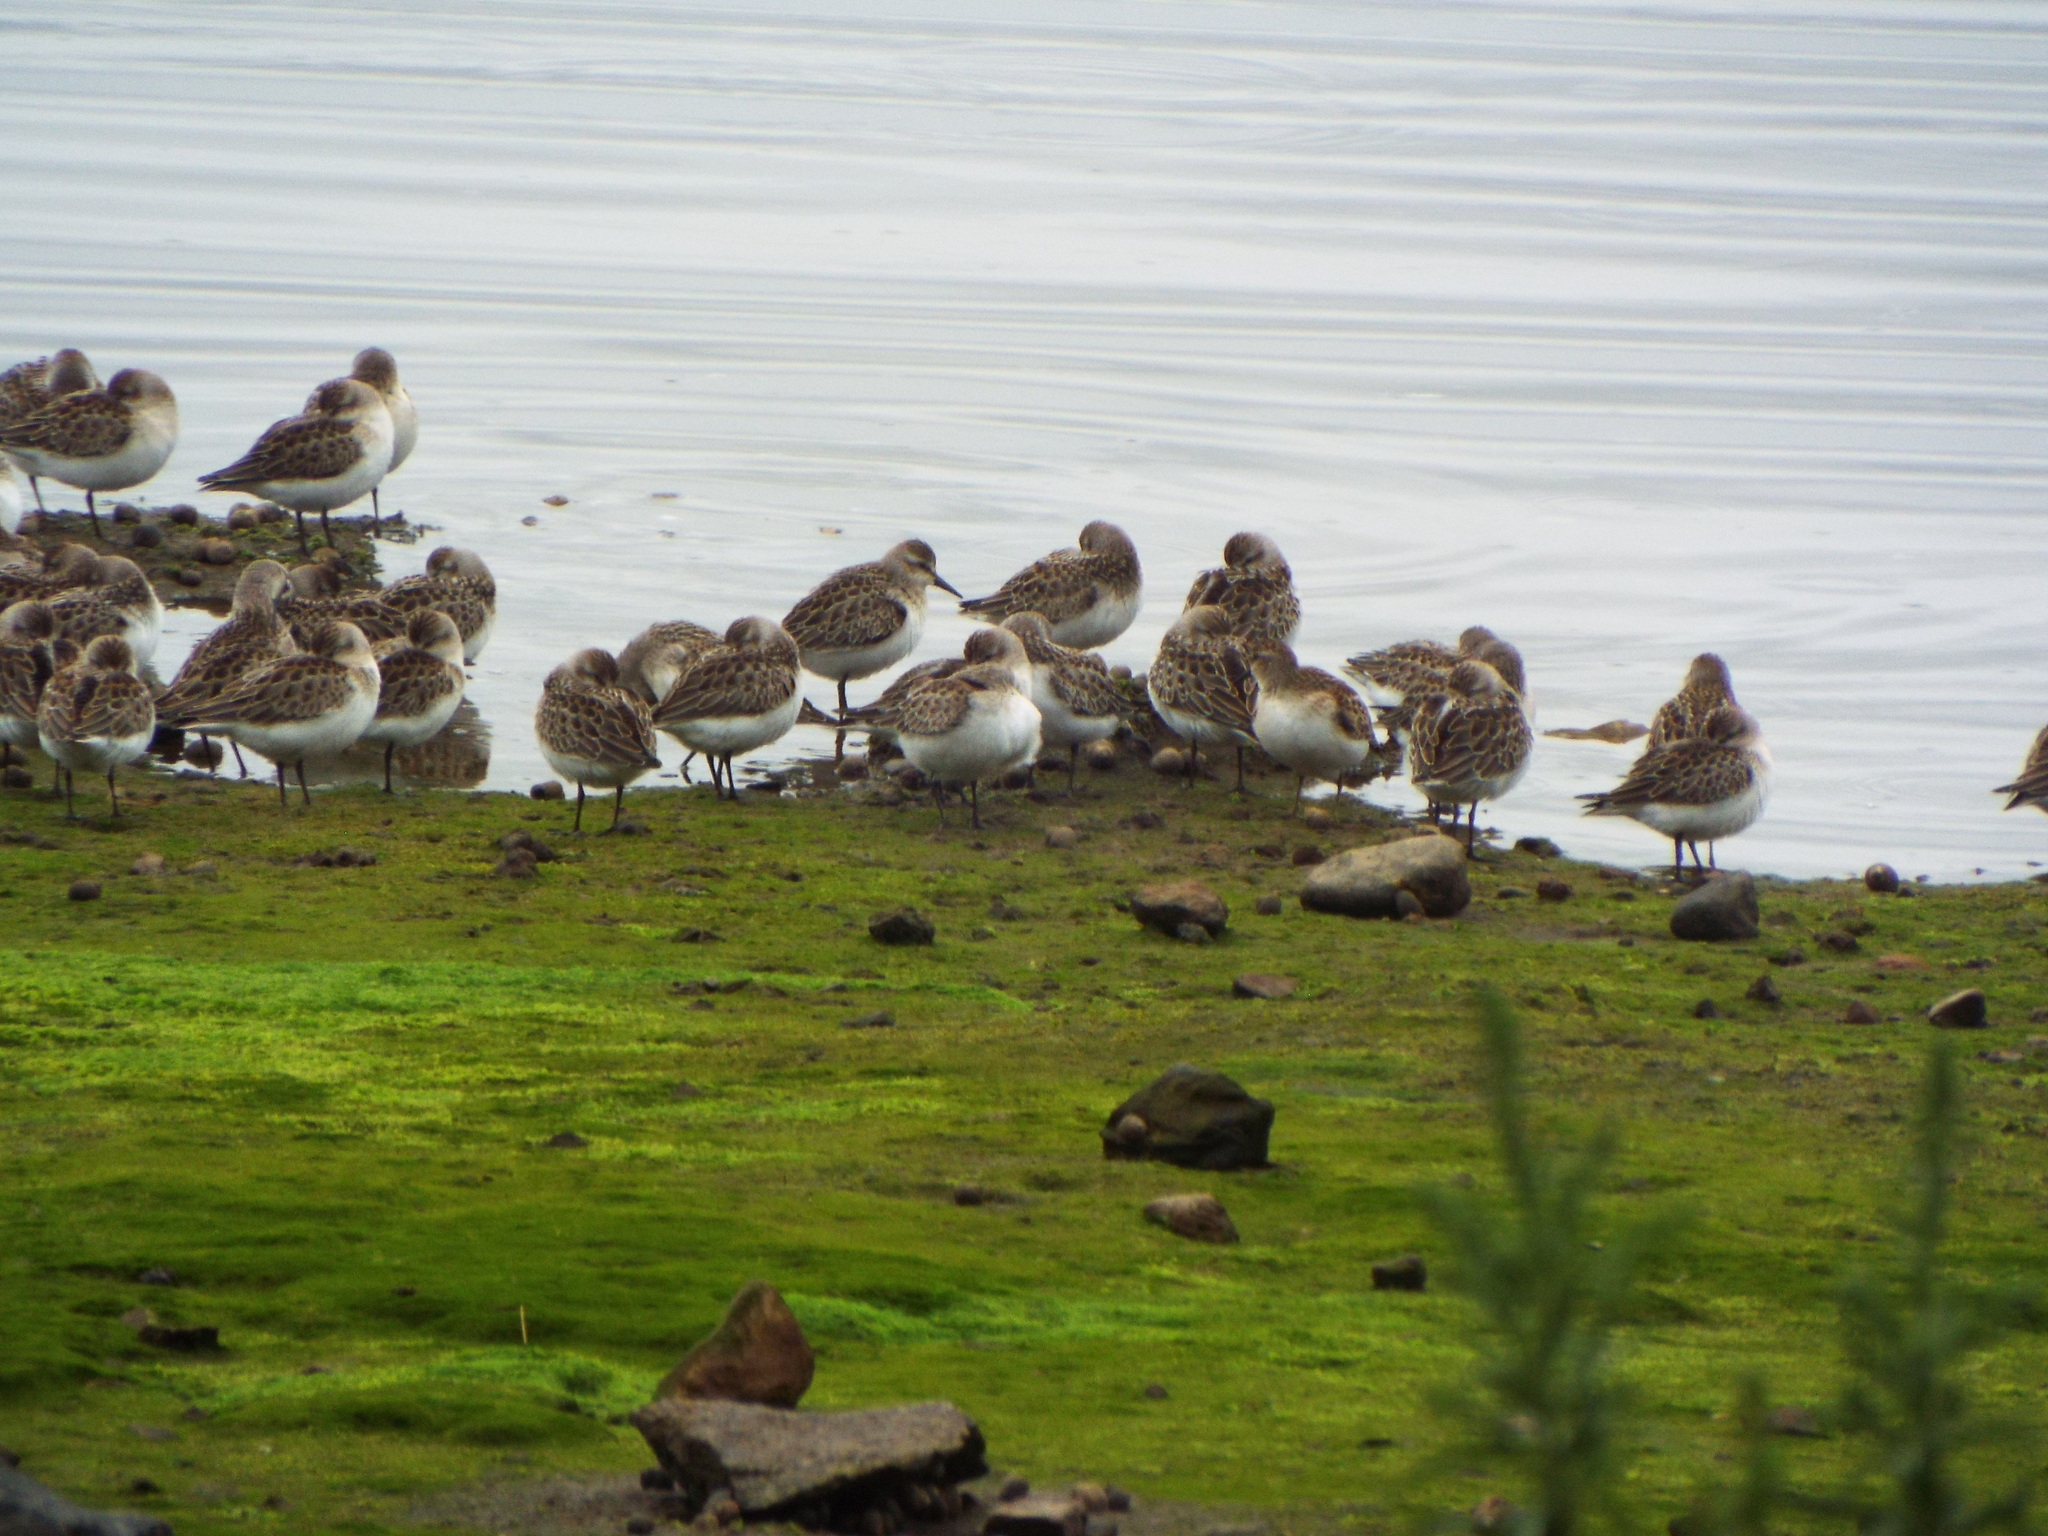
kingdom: Animalia
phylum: Chordata
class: Aves
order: Charadriiformes
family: Scolopacidae
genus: Calidris
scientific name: Calidris pusilla
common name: Semipalmated sandpiper
